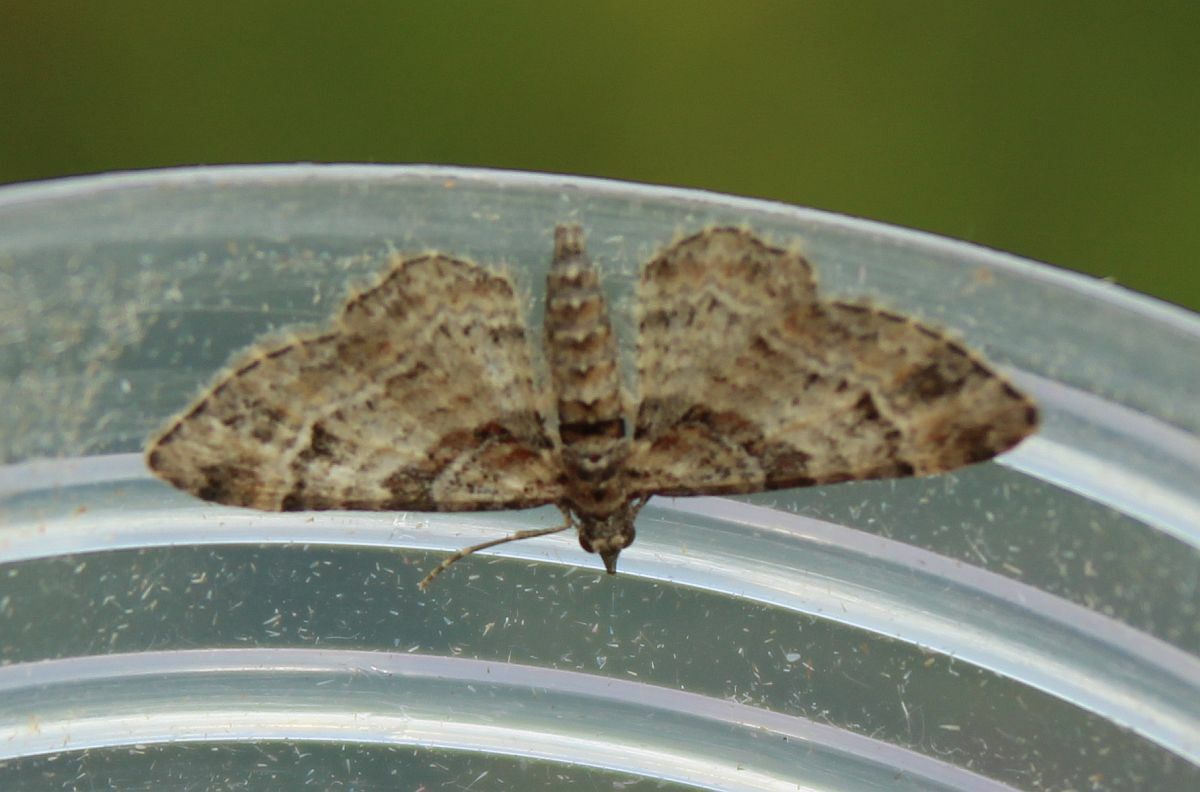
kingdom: Animalia
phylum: Arthropoda
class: Insecta
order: Lepidoptera
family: Geometridae
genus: Gymnoscelis
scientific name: Gymnoscelis rufifasciata
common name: Double-striped pug
